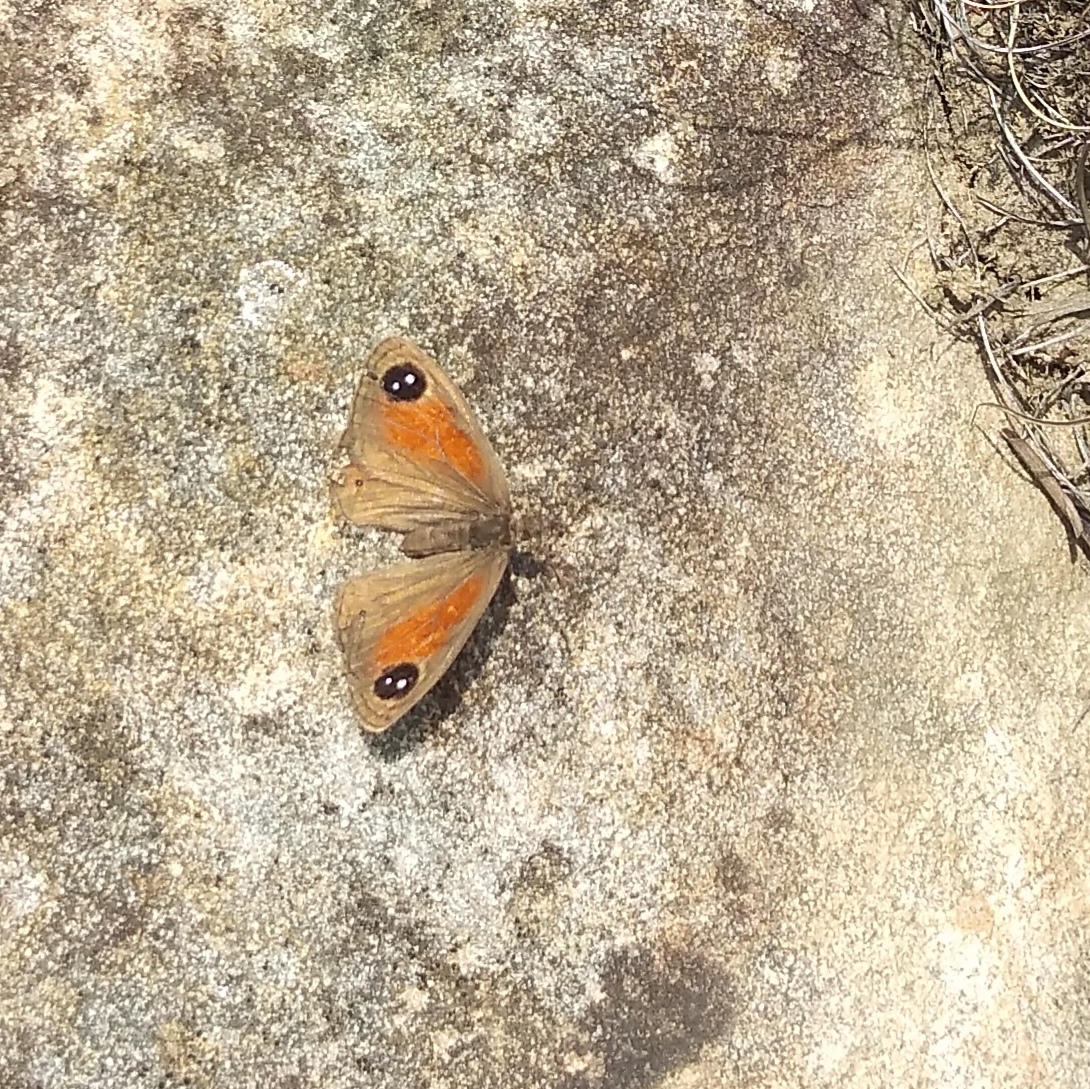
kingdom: Animalia
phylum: Arthropoda
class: Insecta
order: Lepidoptera
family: Nymphalidae
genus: Stygionympha
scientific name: Stygionympha scotina
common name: Eastern hillside brown
